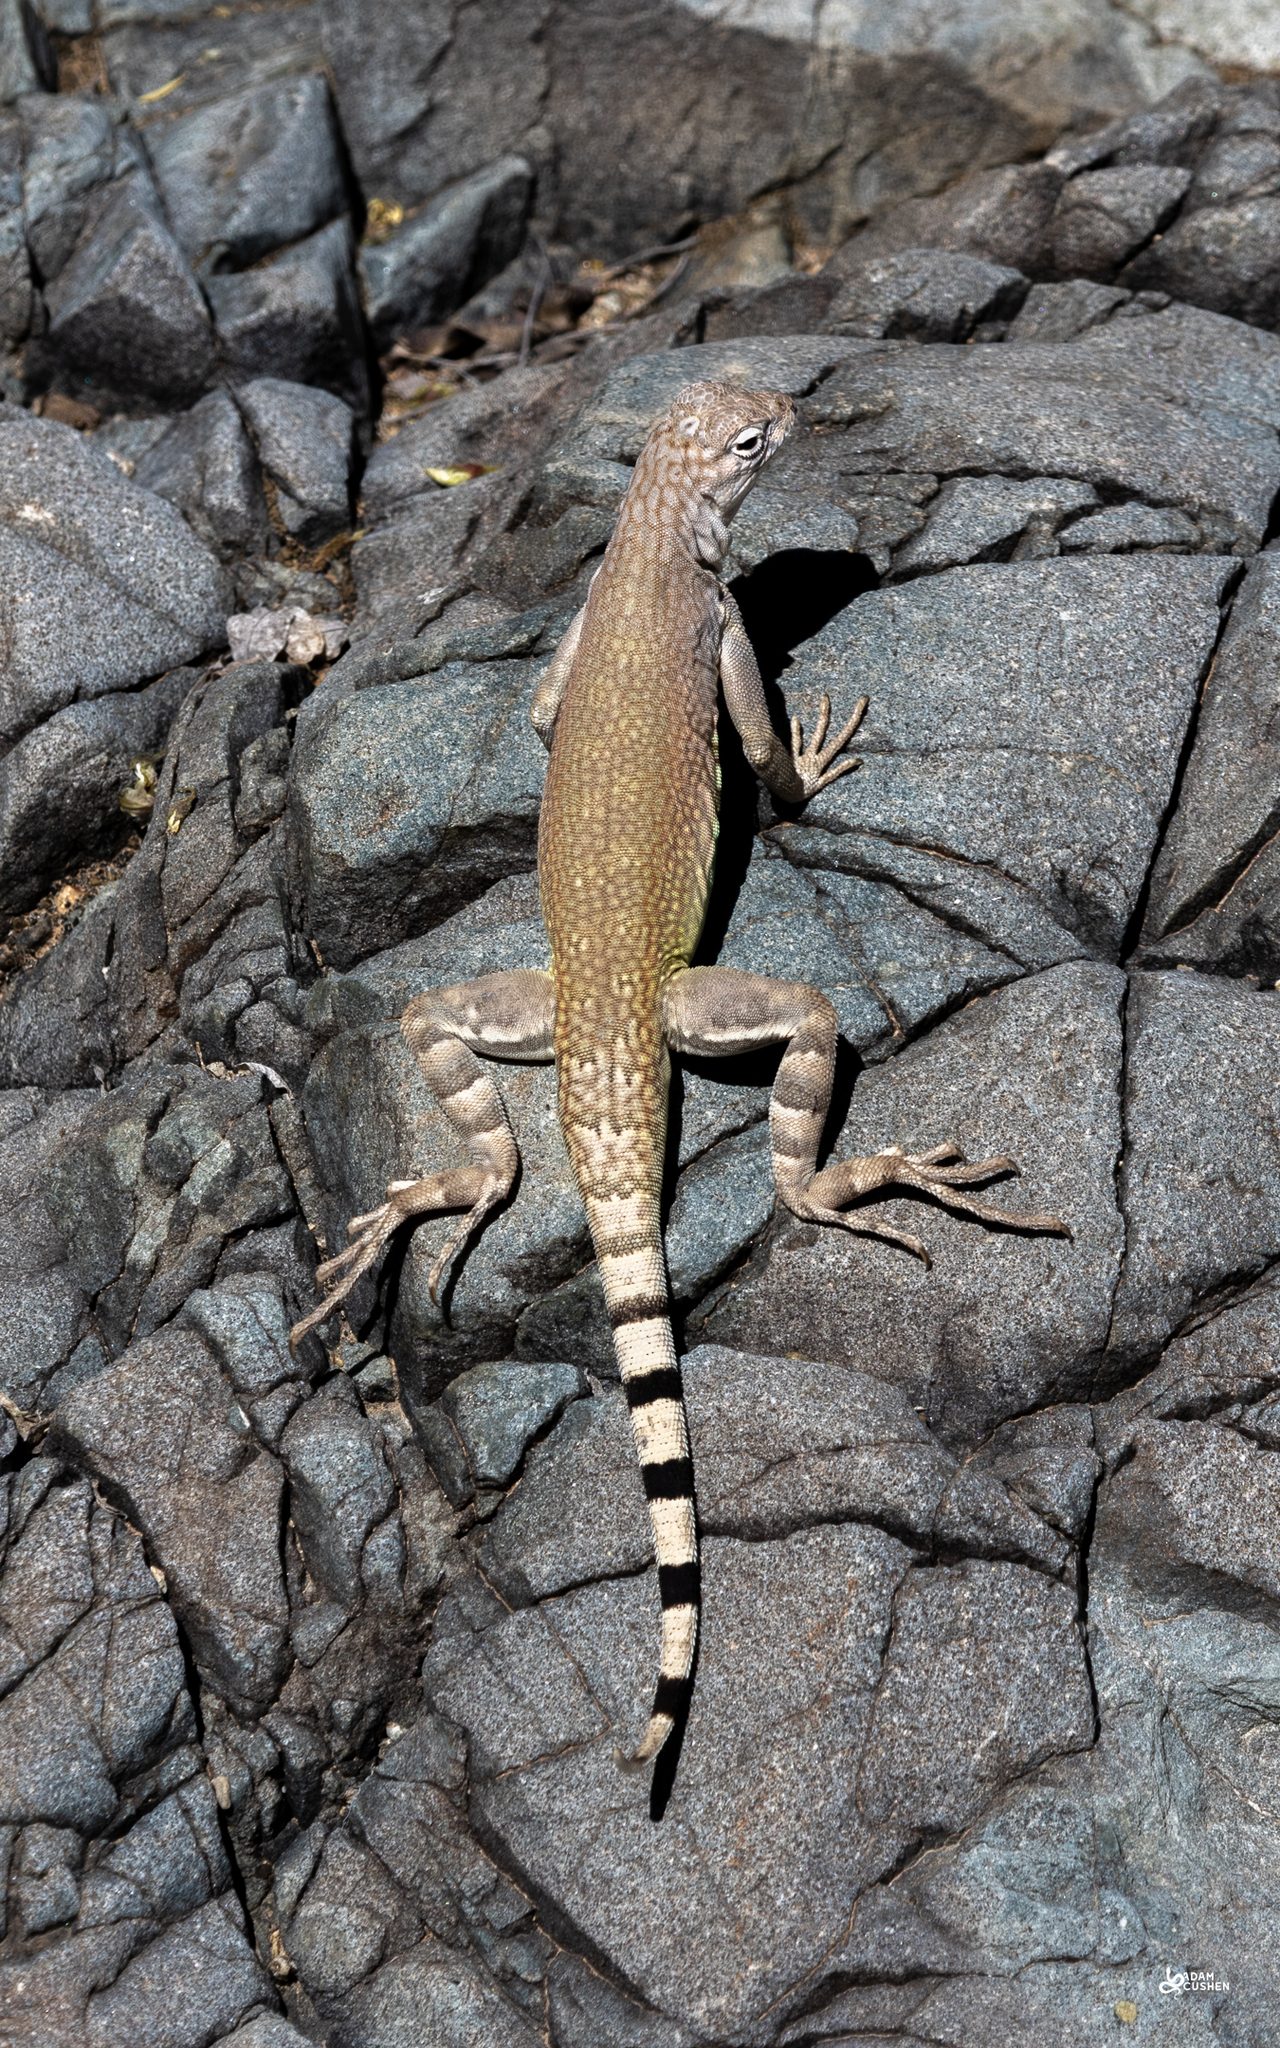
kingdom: Animalia
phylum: Chordata
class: Squamata
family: Phrynosomatidae
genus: Callisaurus
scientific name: Callisaurus draconoides
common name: Zebra-tailed lizard
